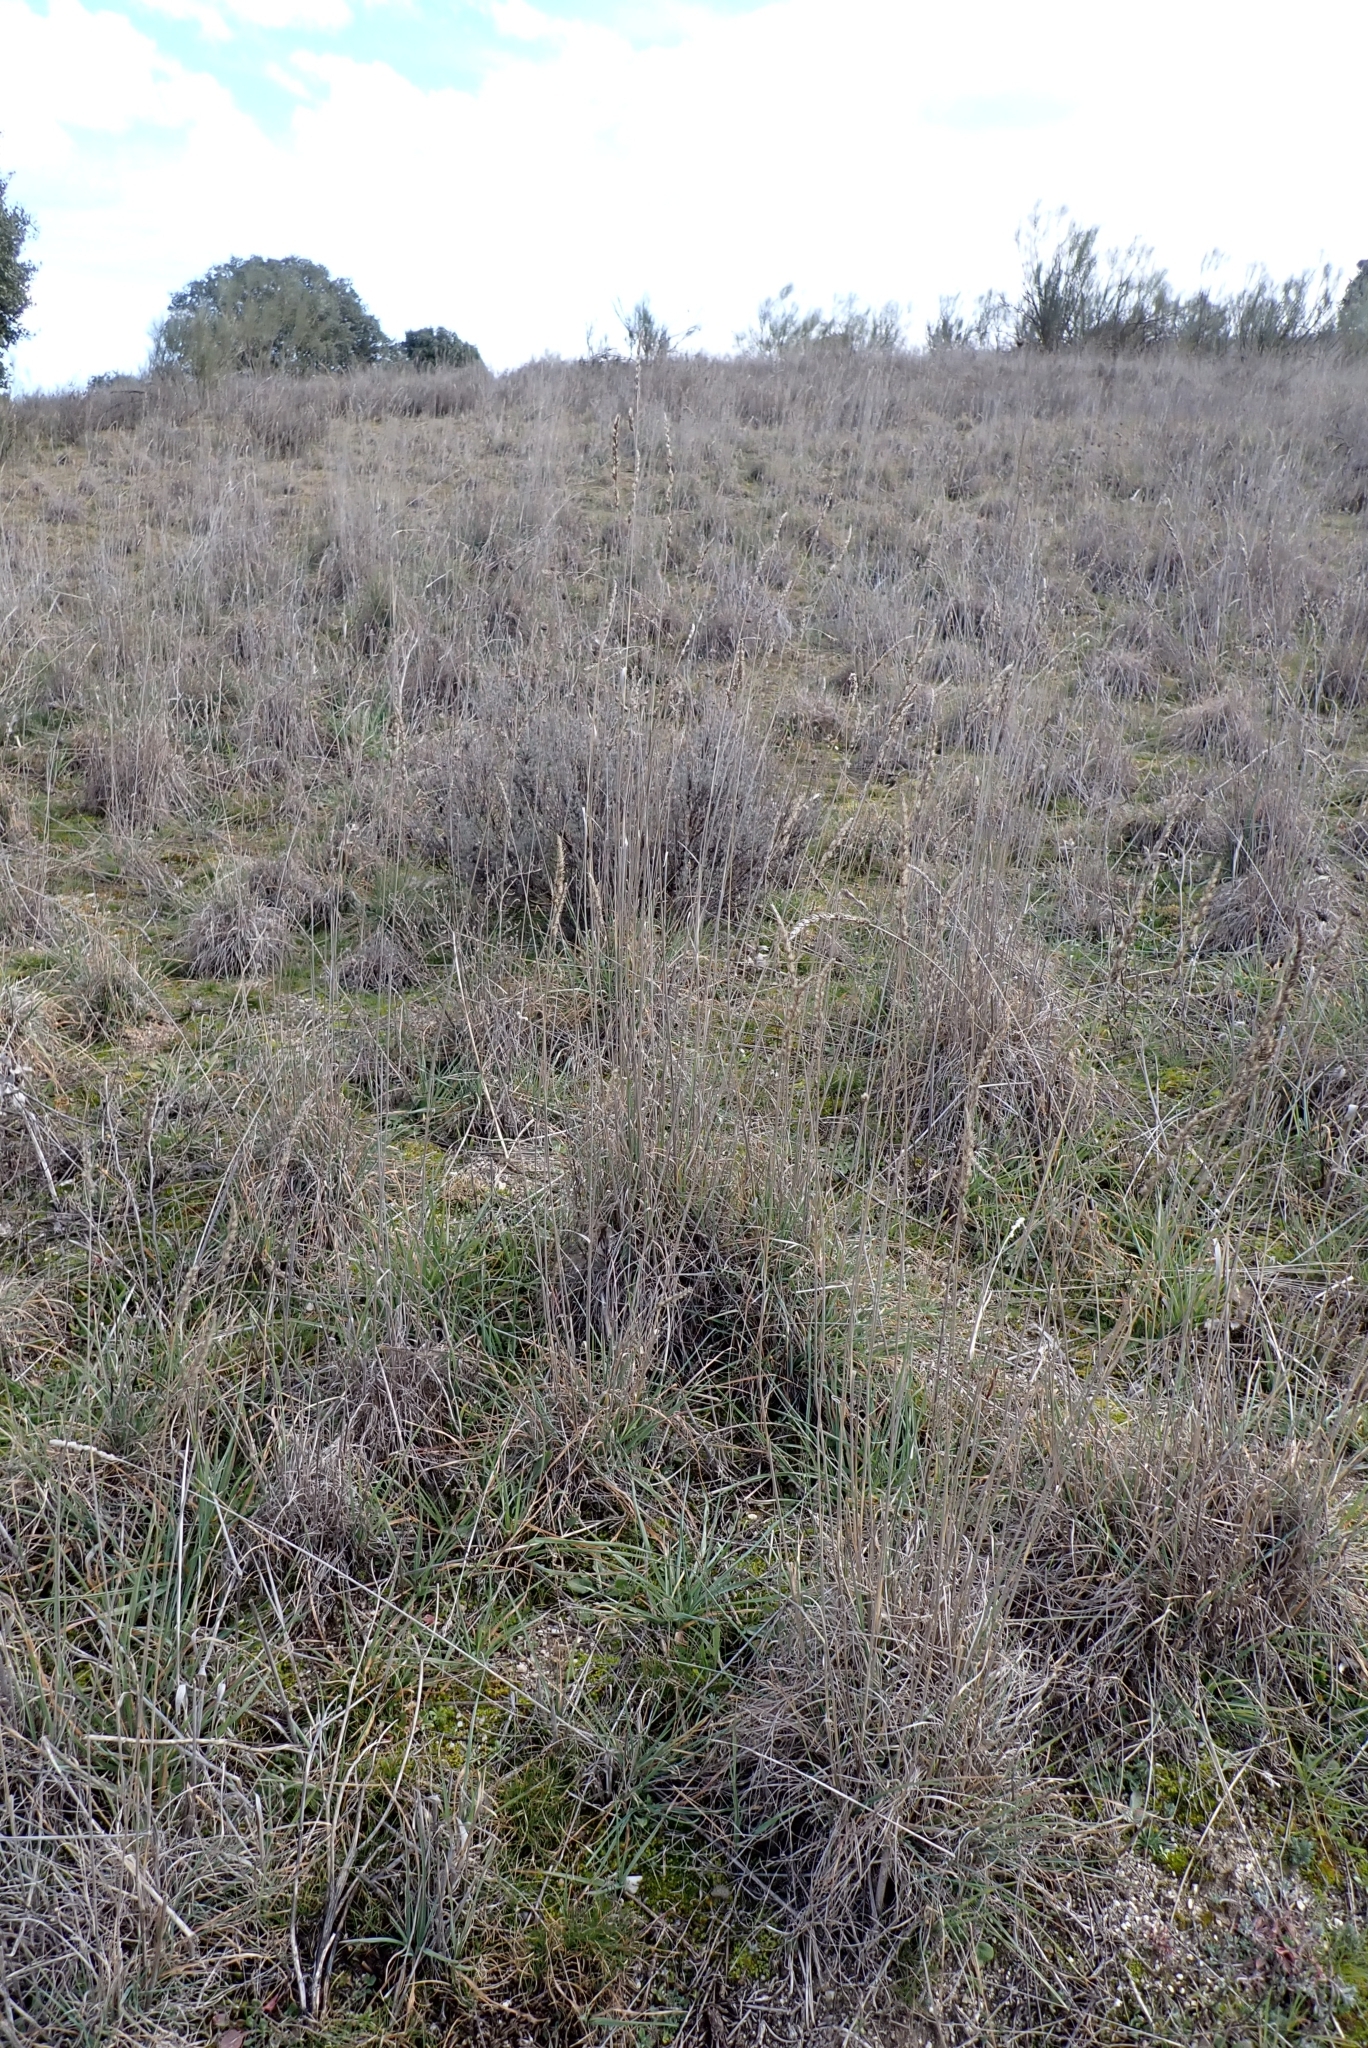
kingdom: Plantae
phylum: Tracheophyta
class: Liliopsida
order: Poales
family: Poaceae
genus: Dactylis
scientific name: Dactylis glomerata
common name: Orchardgrass
